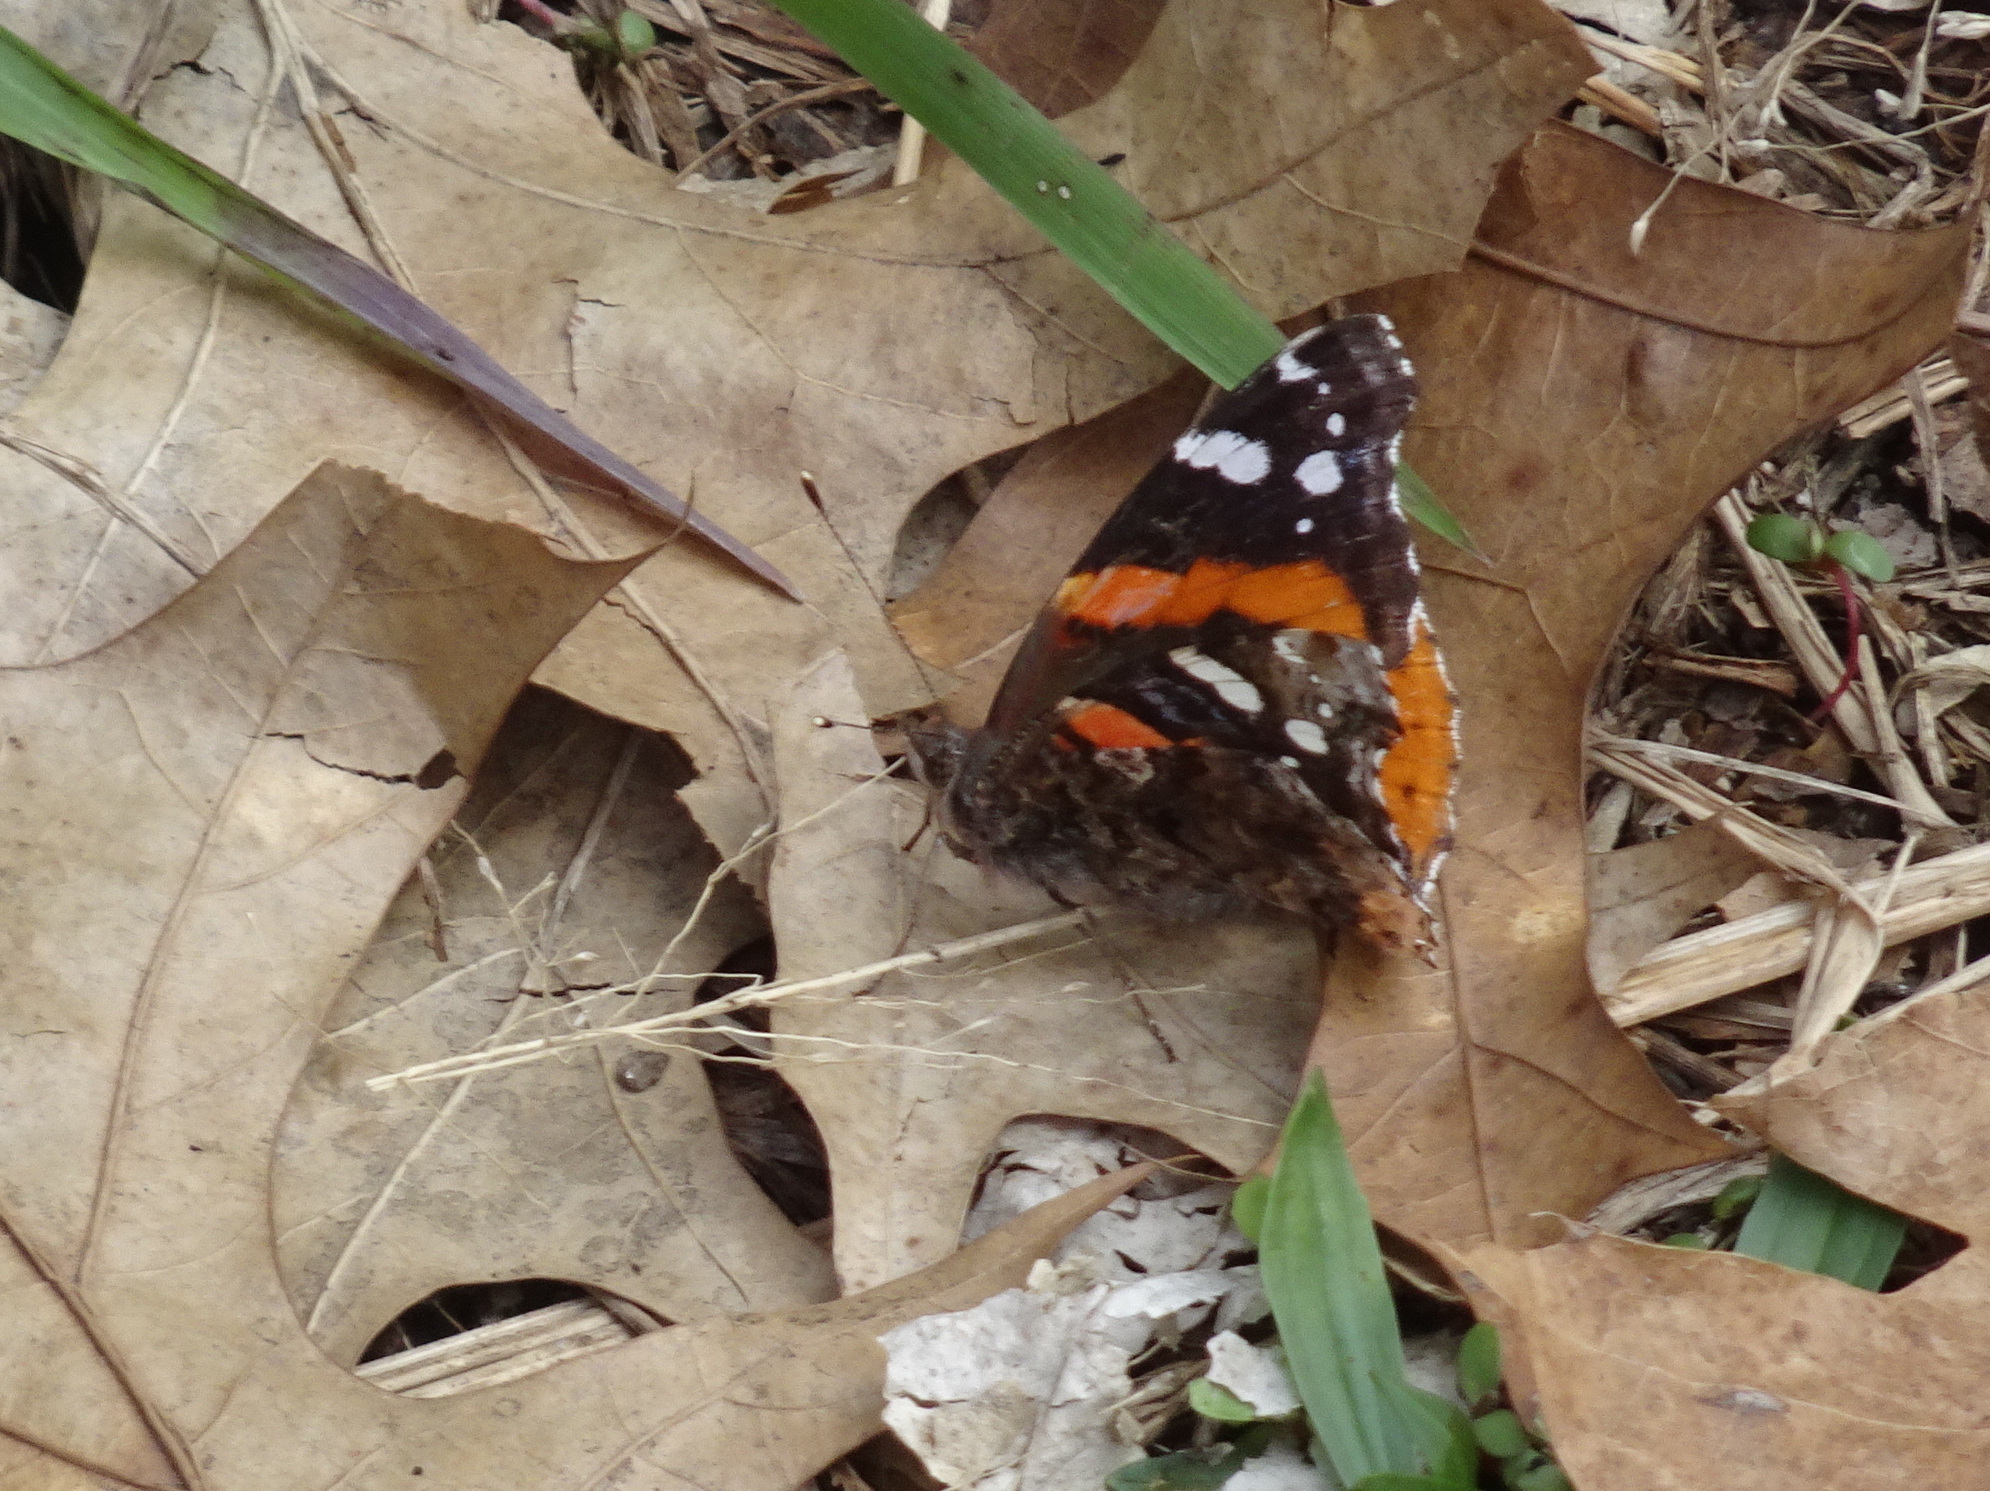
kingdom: Animalia
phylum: Arthropoda
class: Insecta
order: Lepidoptera
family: Nymphalidae
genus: Vanessa
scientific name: Vanessa atalanta
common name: Red admiral
